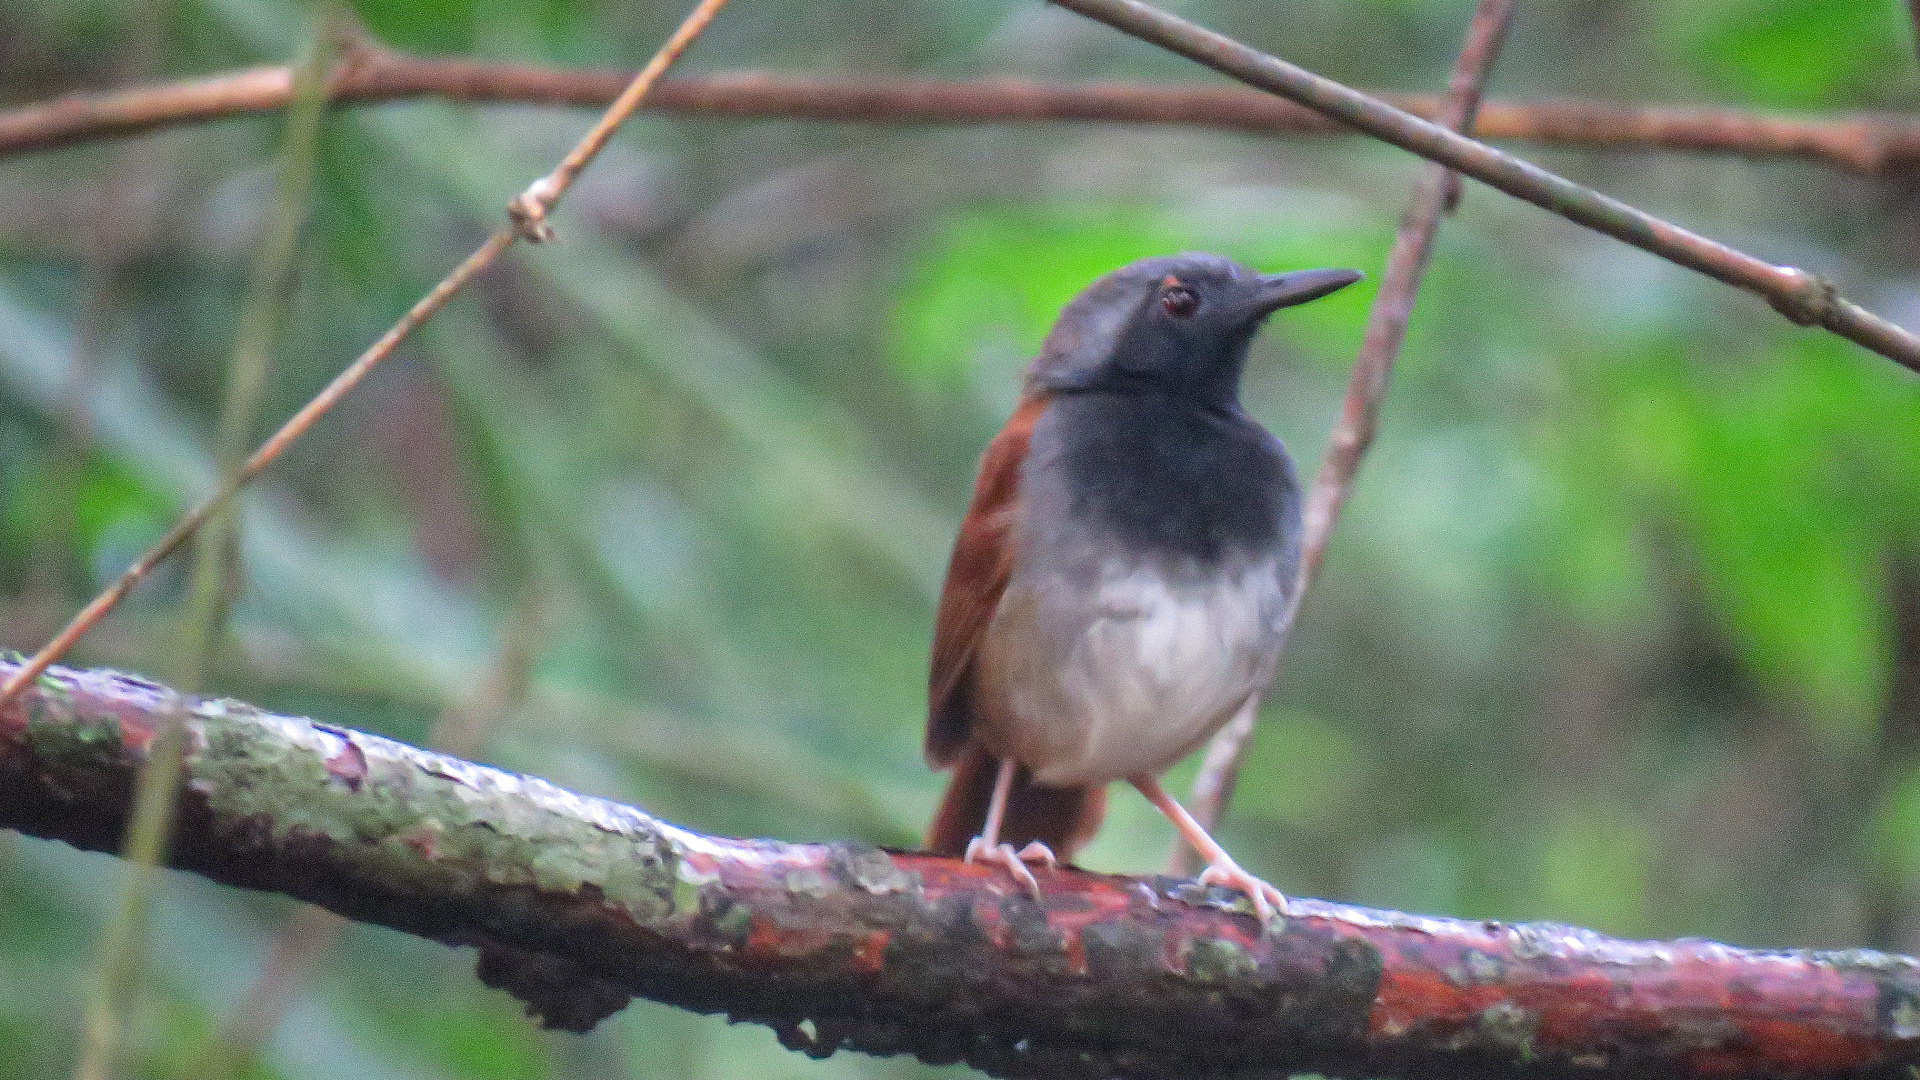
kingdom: Animalia
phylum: Chordata
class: Aves
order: Passeriformes
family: Thamnophilidae
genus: Myrmeciza
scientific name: Myrmeciza longipes
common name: White-bellied antbird
